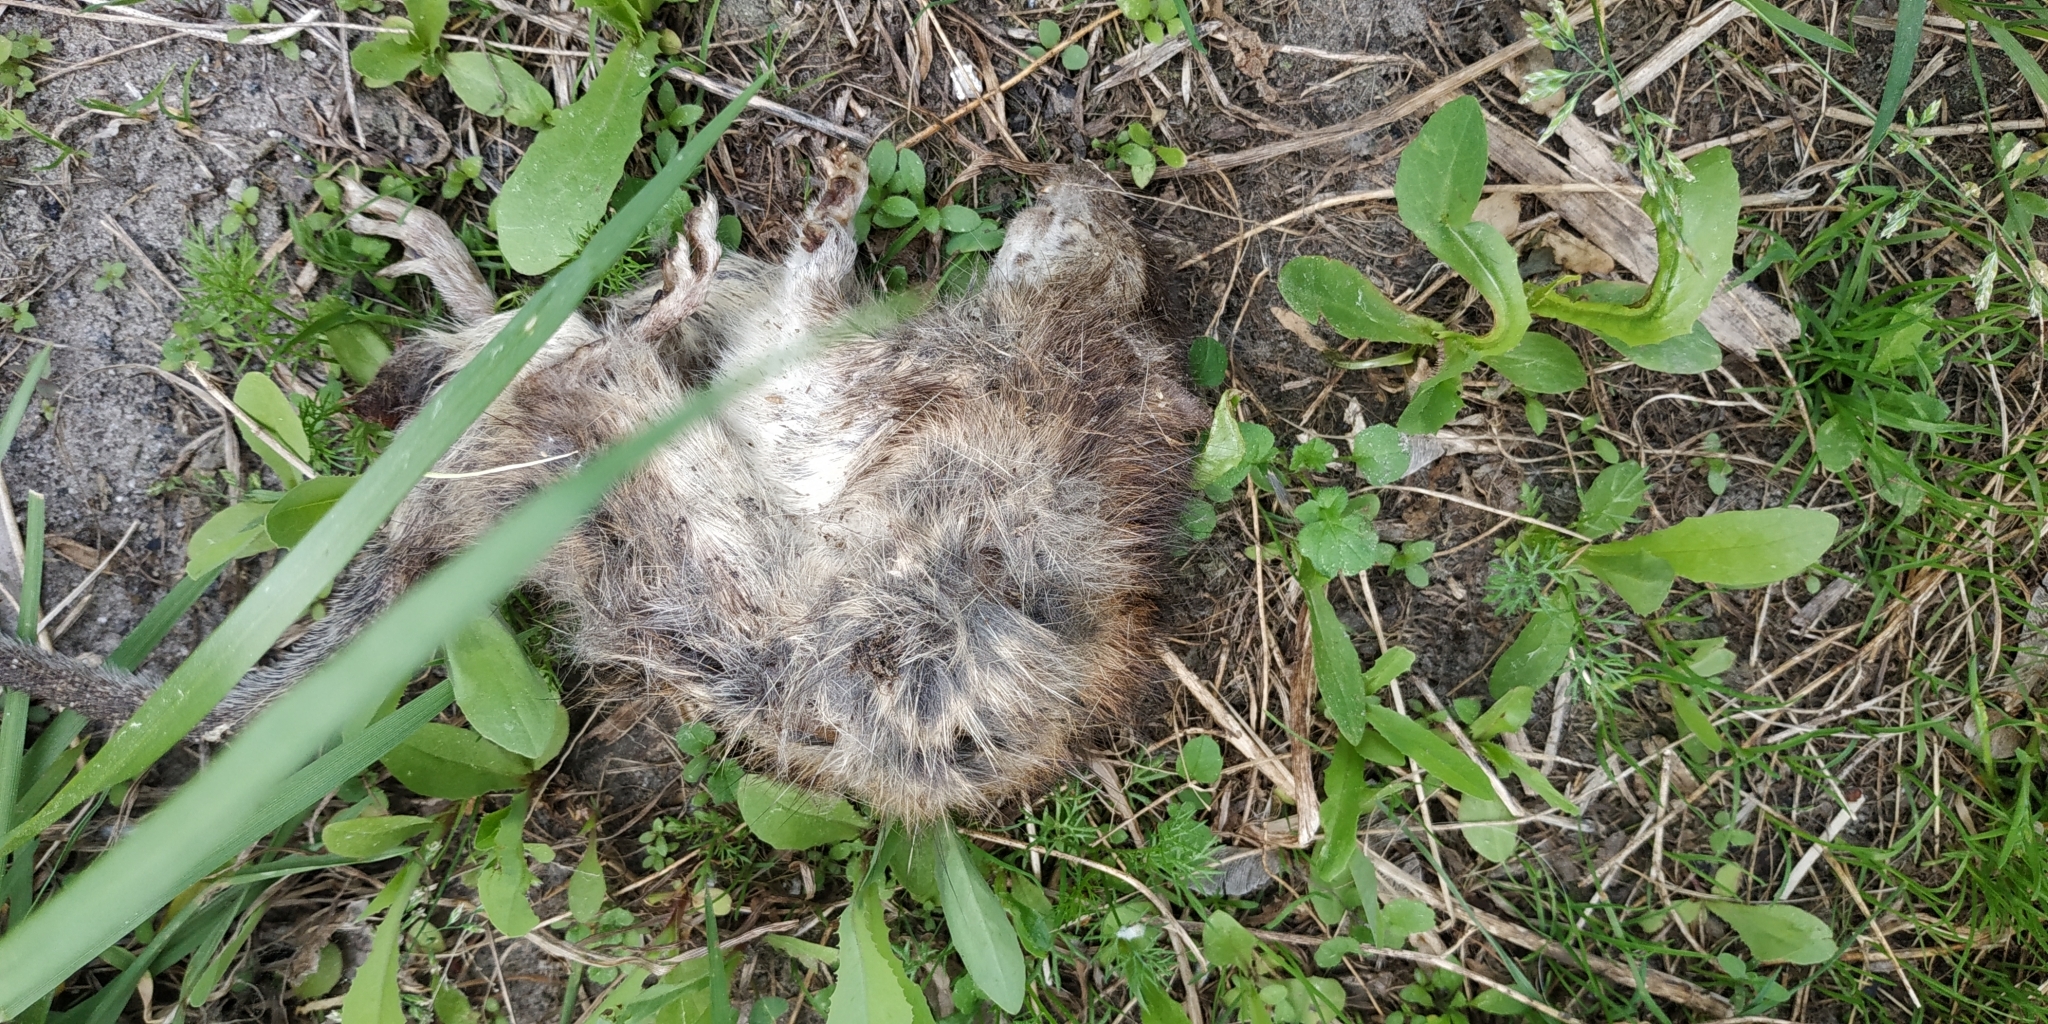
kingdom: Animalia
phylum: Chordata
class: Mammalia
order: Rodentia
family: Muridae
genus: Rattus
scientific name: Rattus norvegicus
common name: Brown rat
